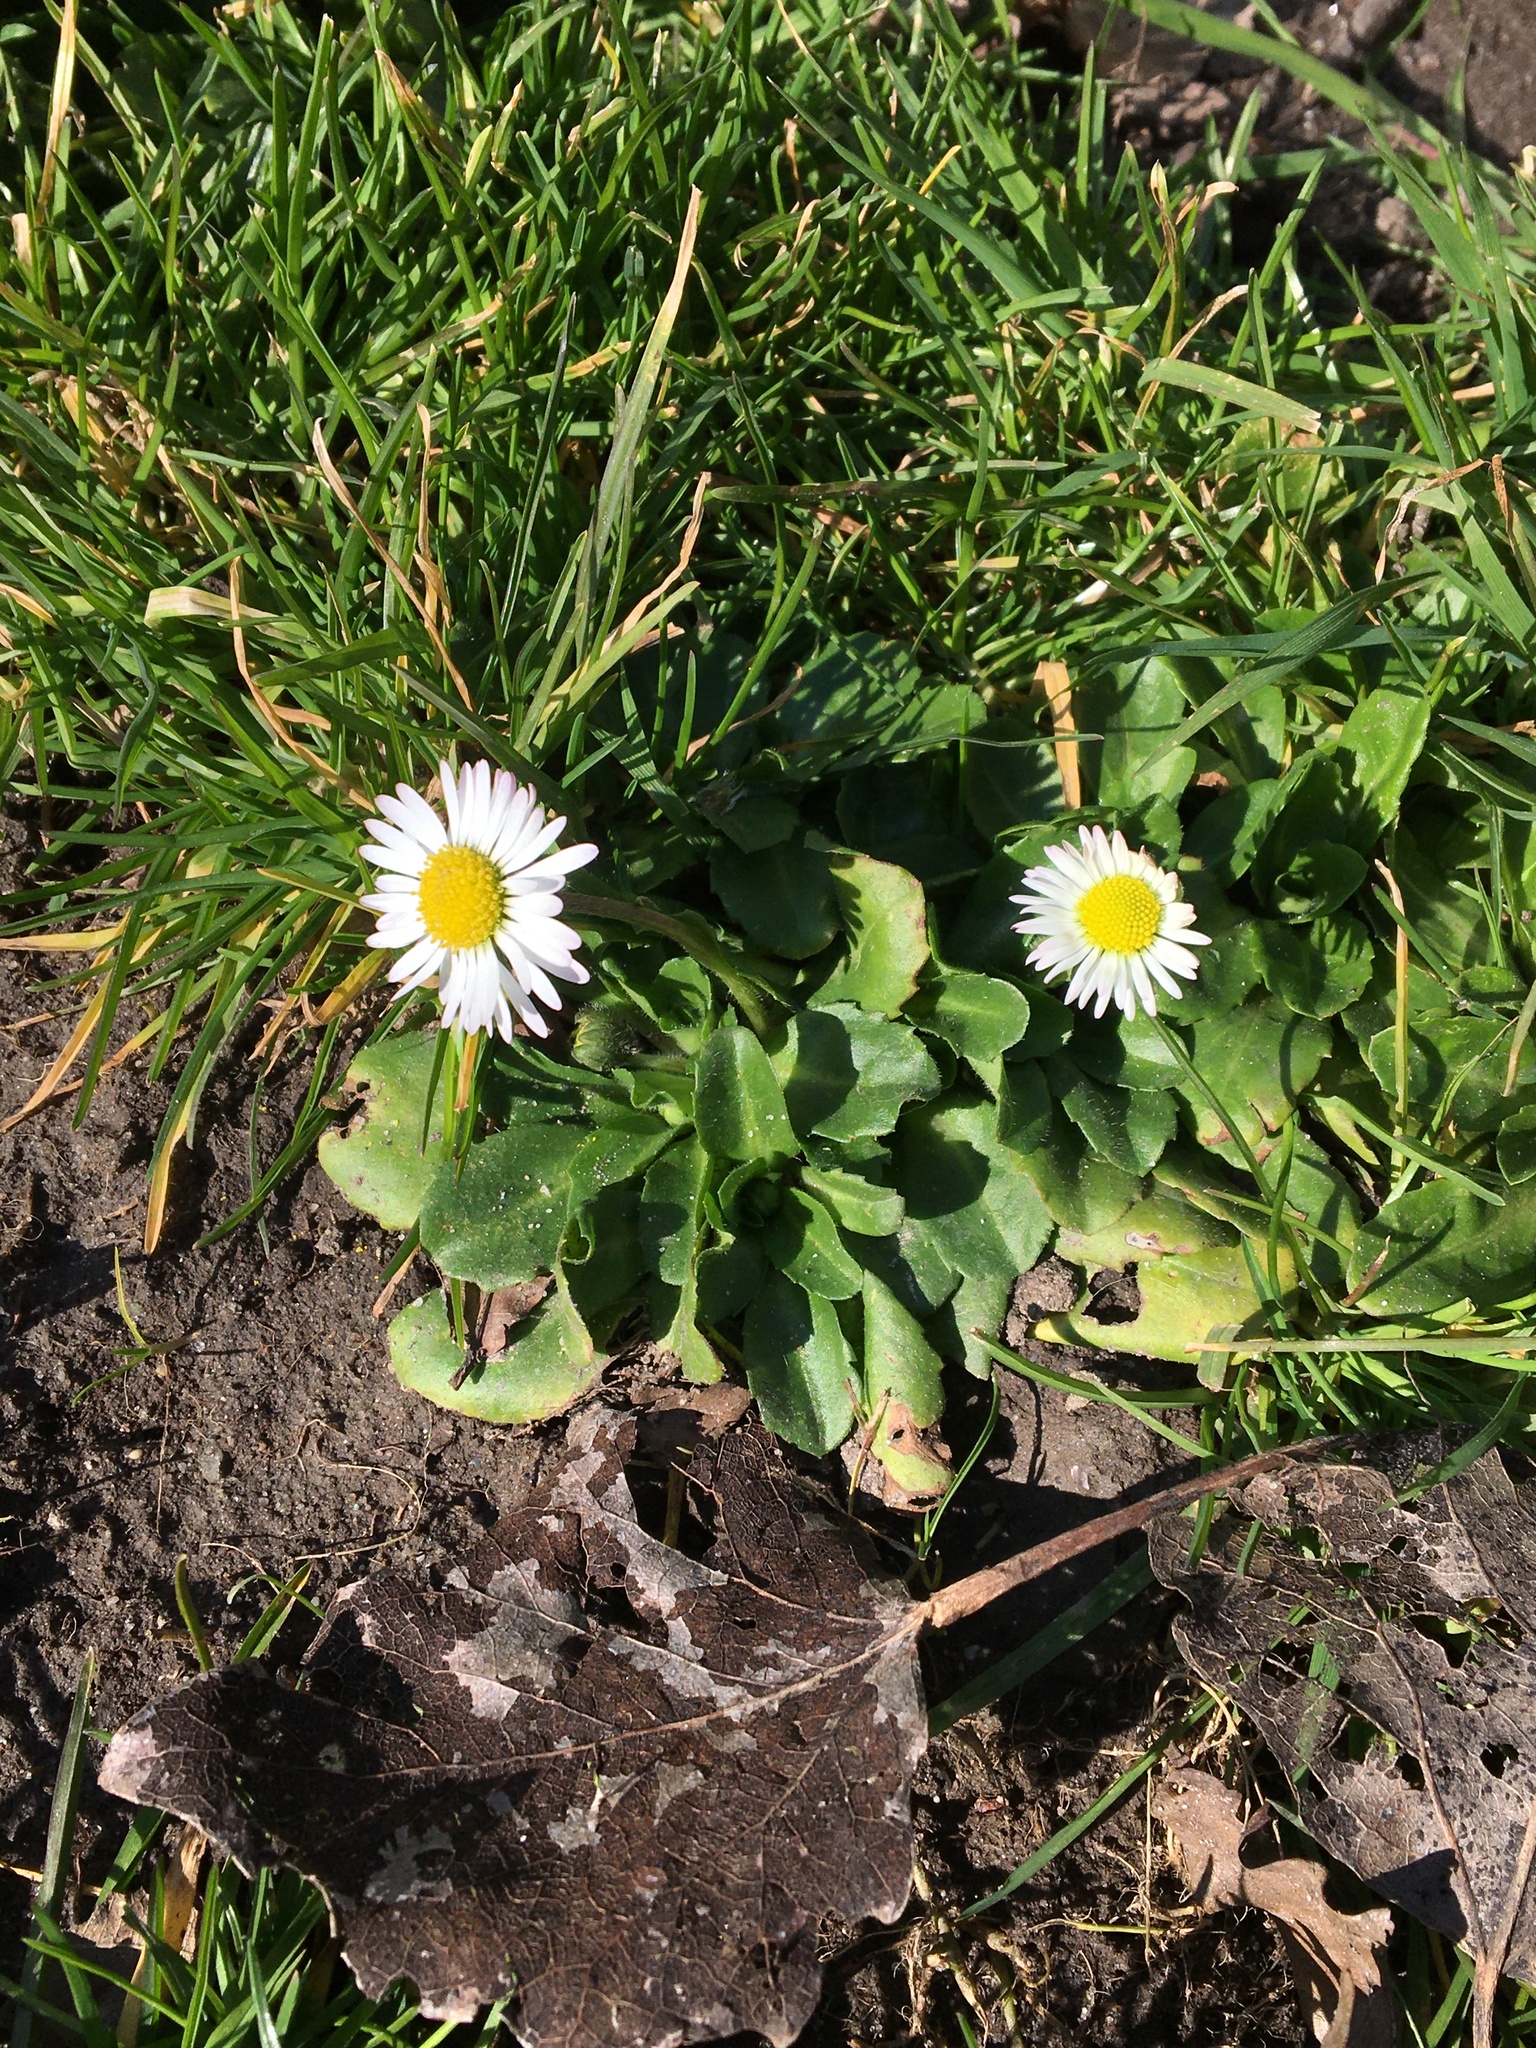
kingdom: Plantae
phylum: Tracheophyta
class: Magnoliopsida
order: Asterales
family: Asteraceae
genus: Bellis
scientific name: Bellis perennis
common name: Lawndaisy
